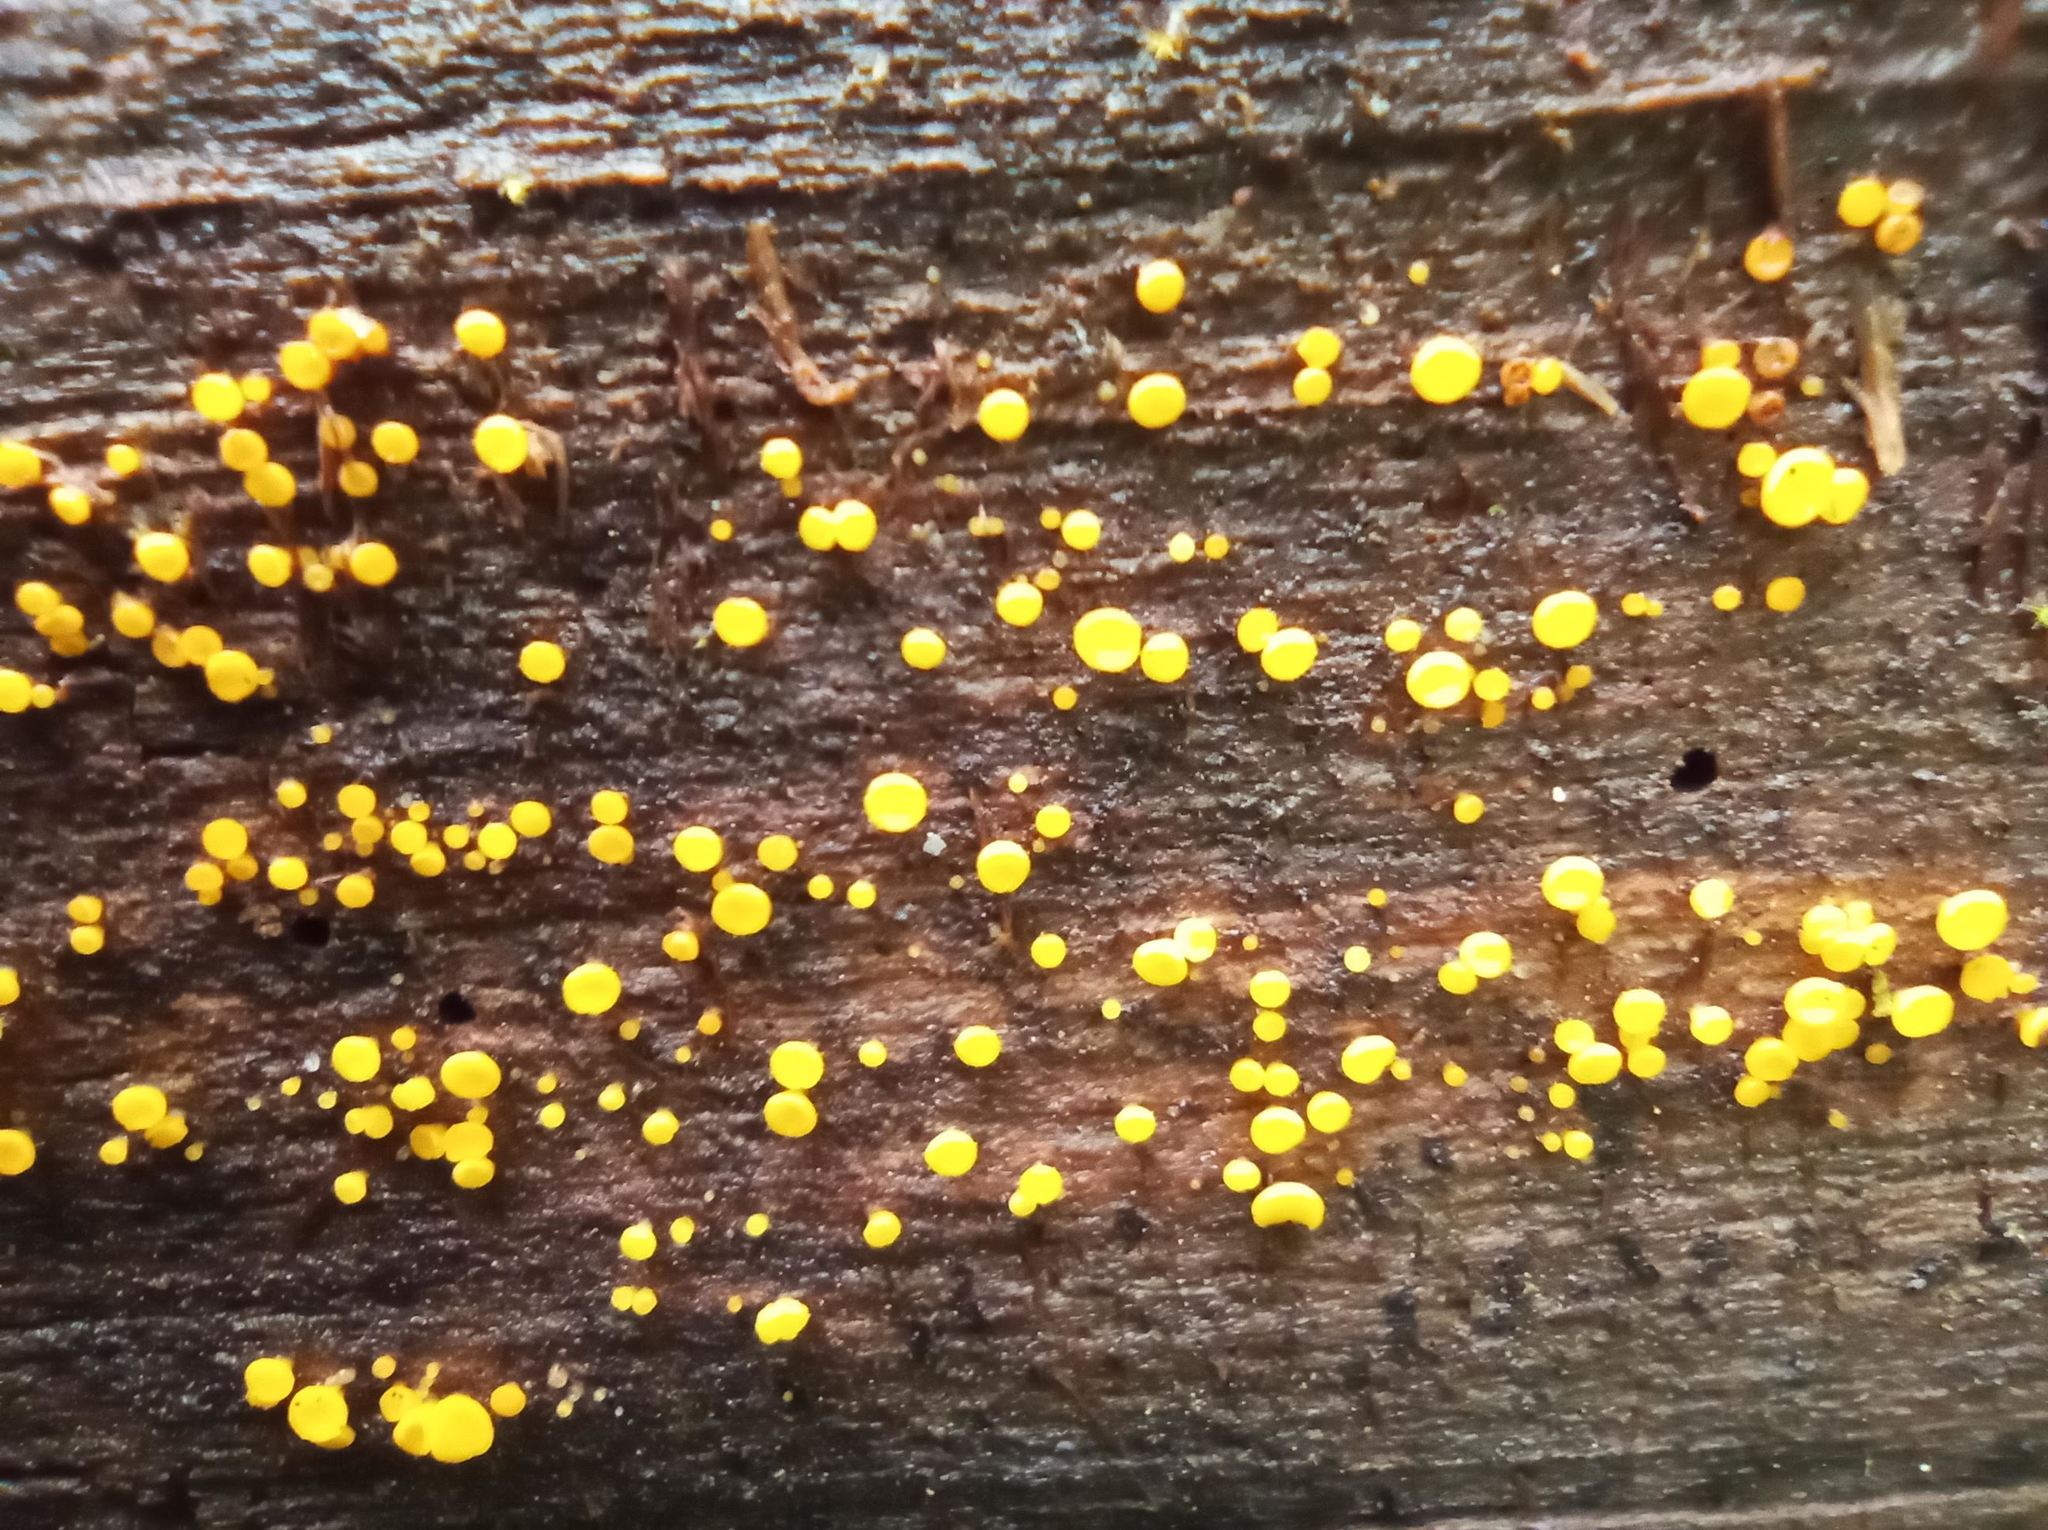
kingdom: Fungi
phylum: Ascomycota
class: Leotiomycetes
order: Helotiales
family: Pezizellaceae
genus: Calycina
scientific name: Calycina citrina
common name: Yellow fairy cups
